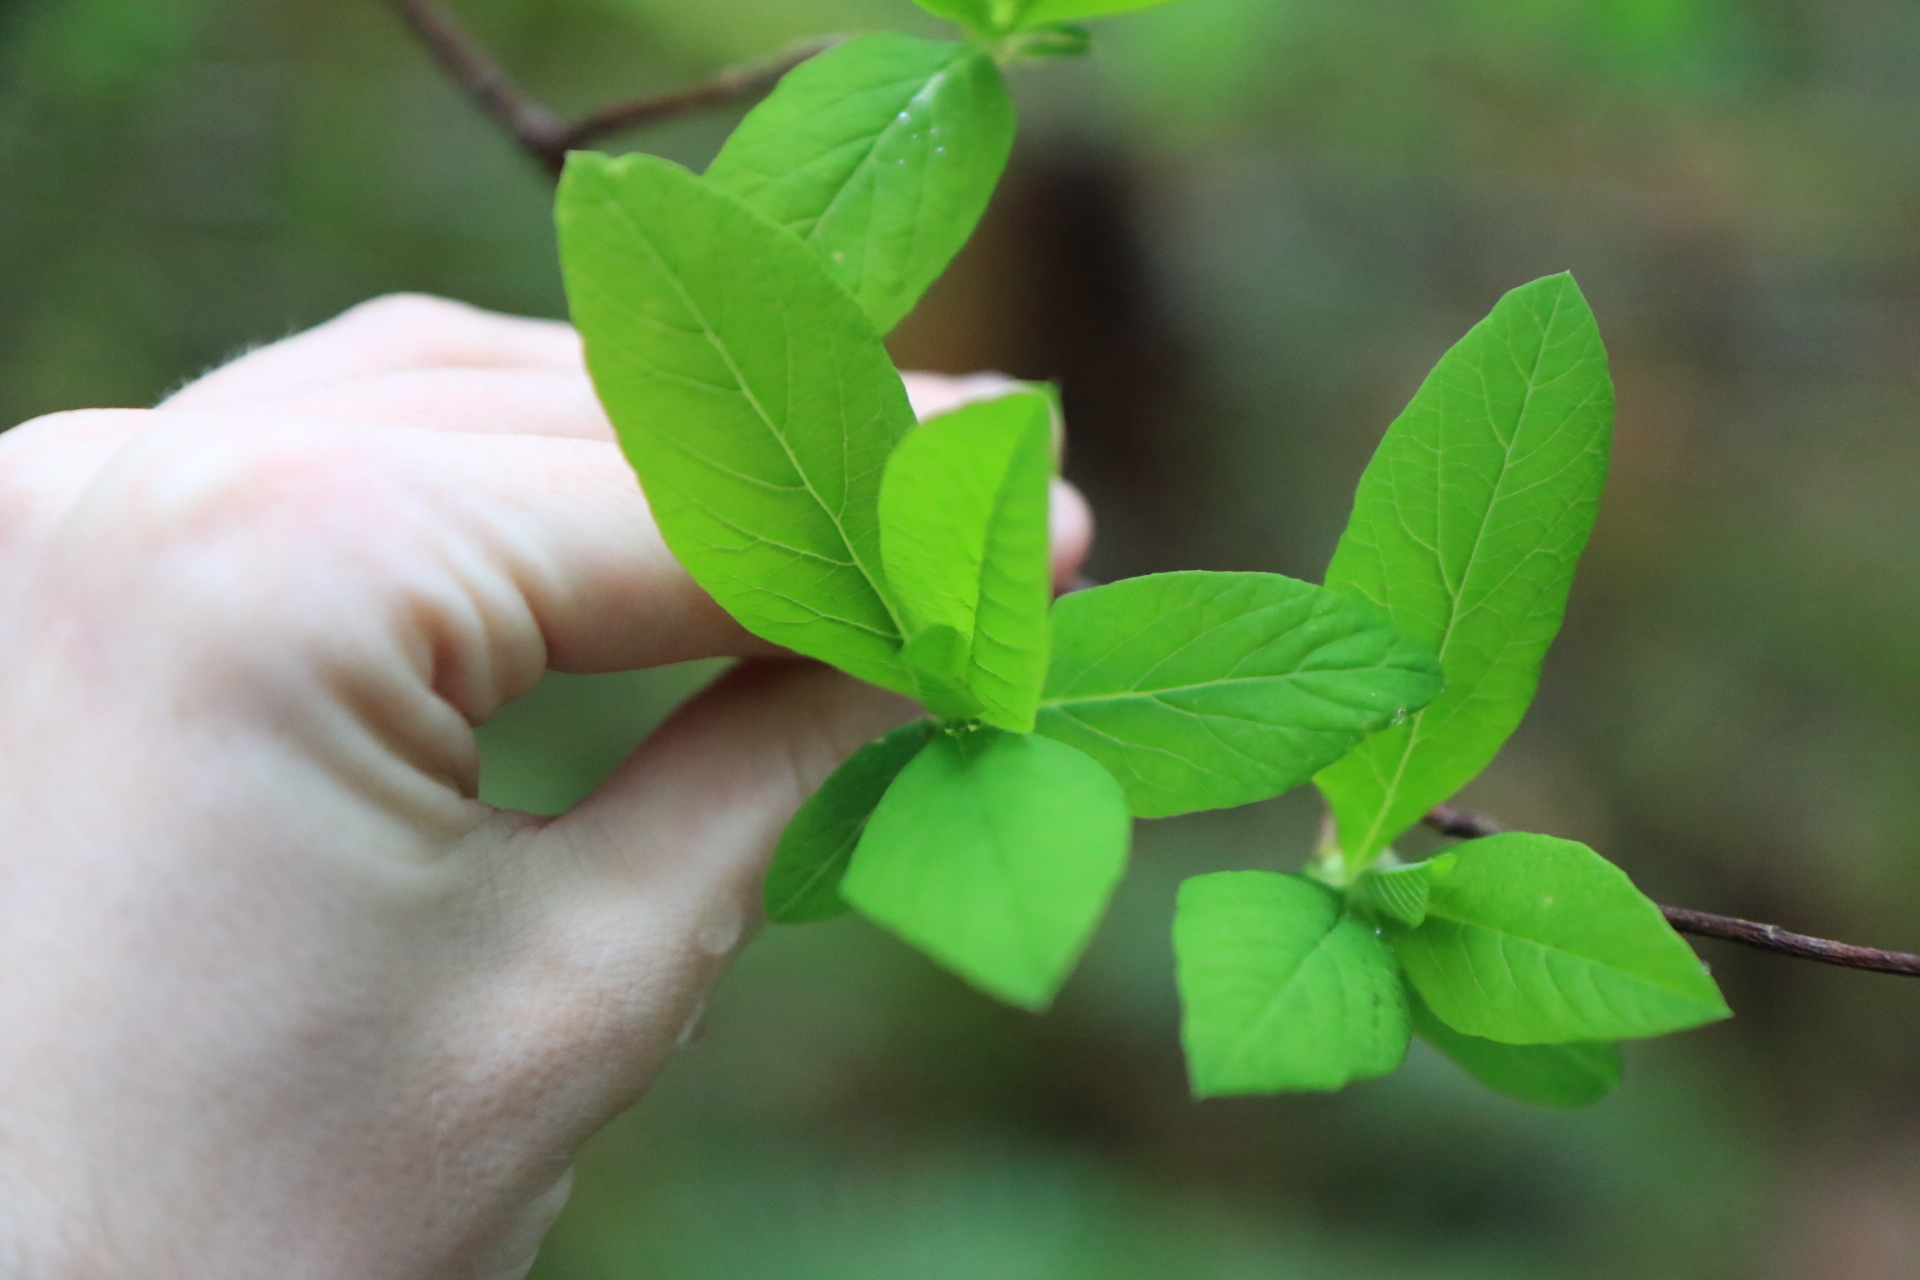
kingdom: Plantae
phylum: Tracheophyta
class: Magnoliopsida
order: Rosales
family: Rosaceae
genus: Oemleria
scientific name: Oemleria cerasiformis
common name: Osoberry
